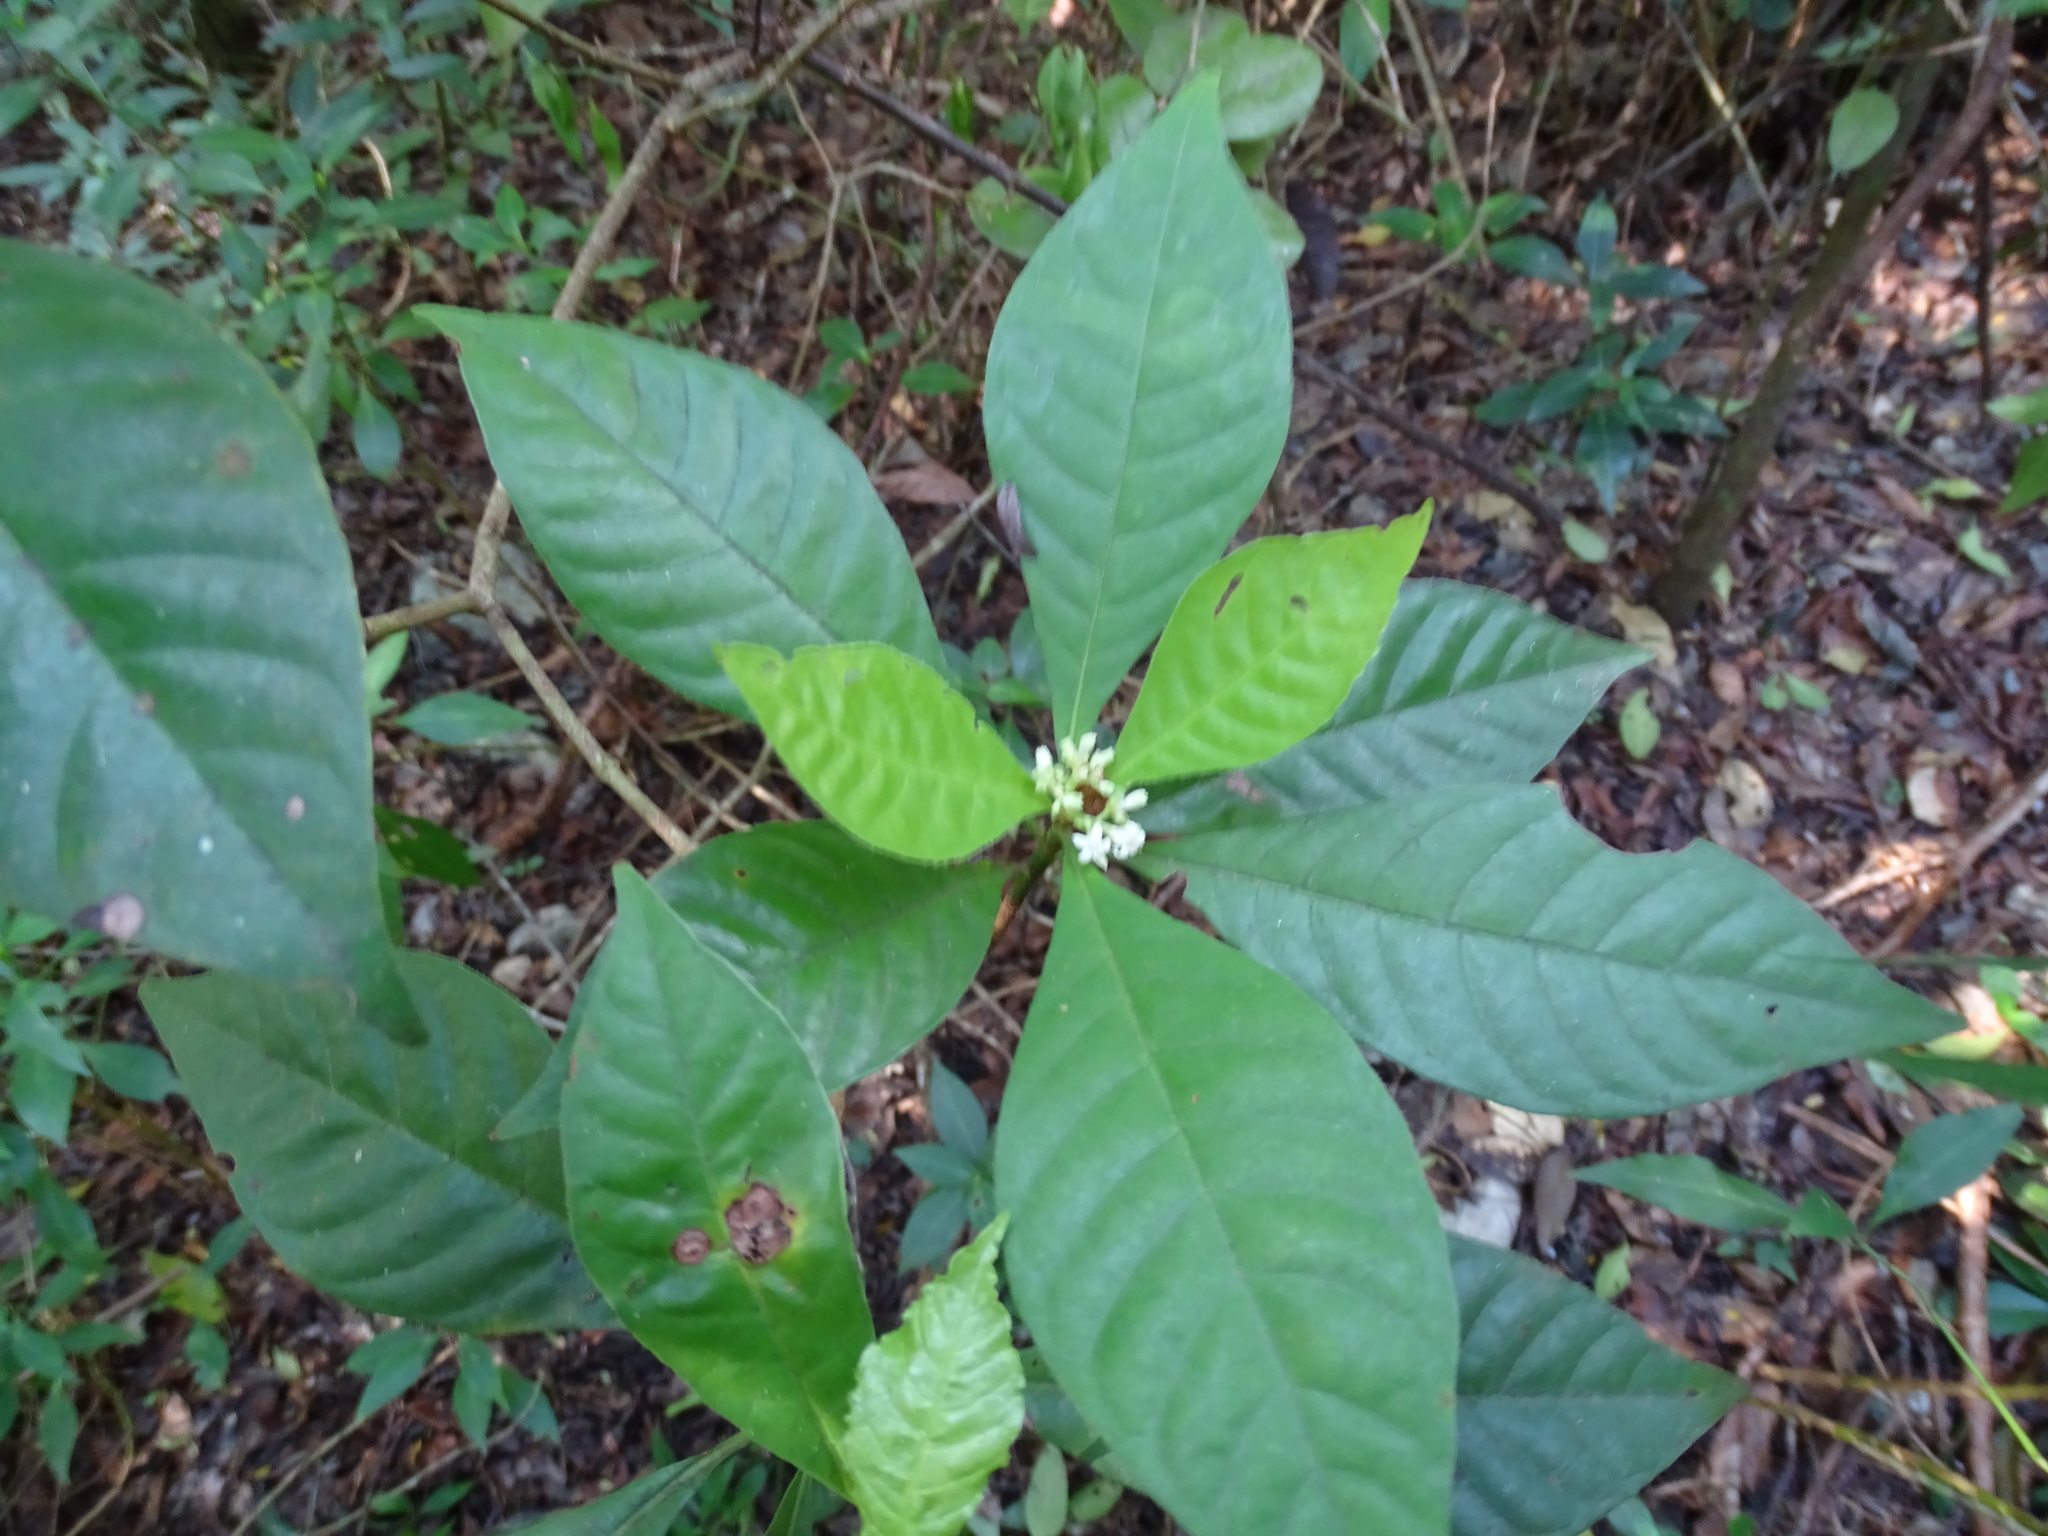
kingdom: Plantae
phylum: Tracheophyta
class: Magnoliopsida
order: Gentianales
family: Rubiaceae
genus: Psychotria
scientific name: Psychotria nervosa
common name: Bastard cankerberry
